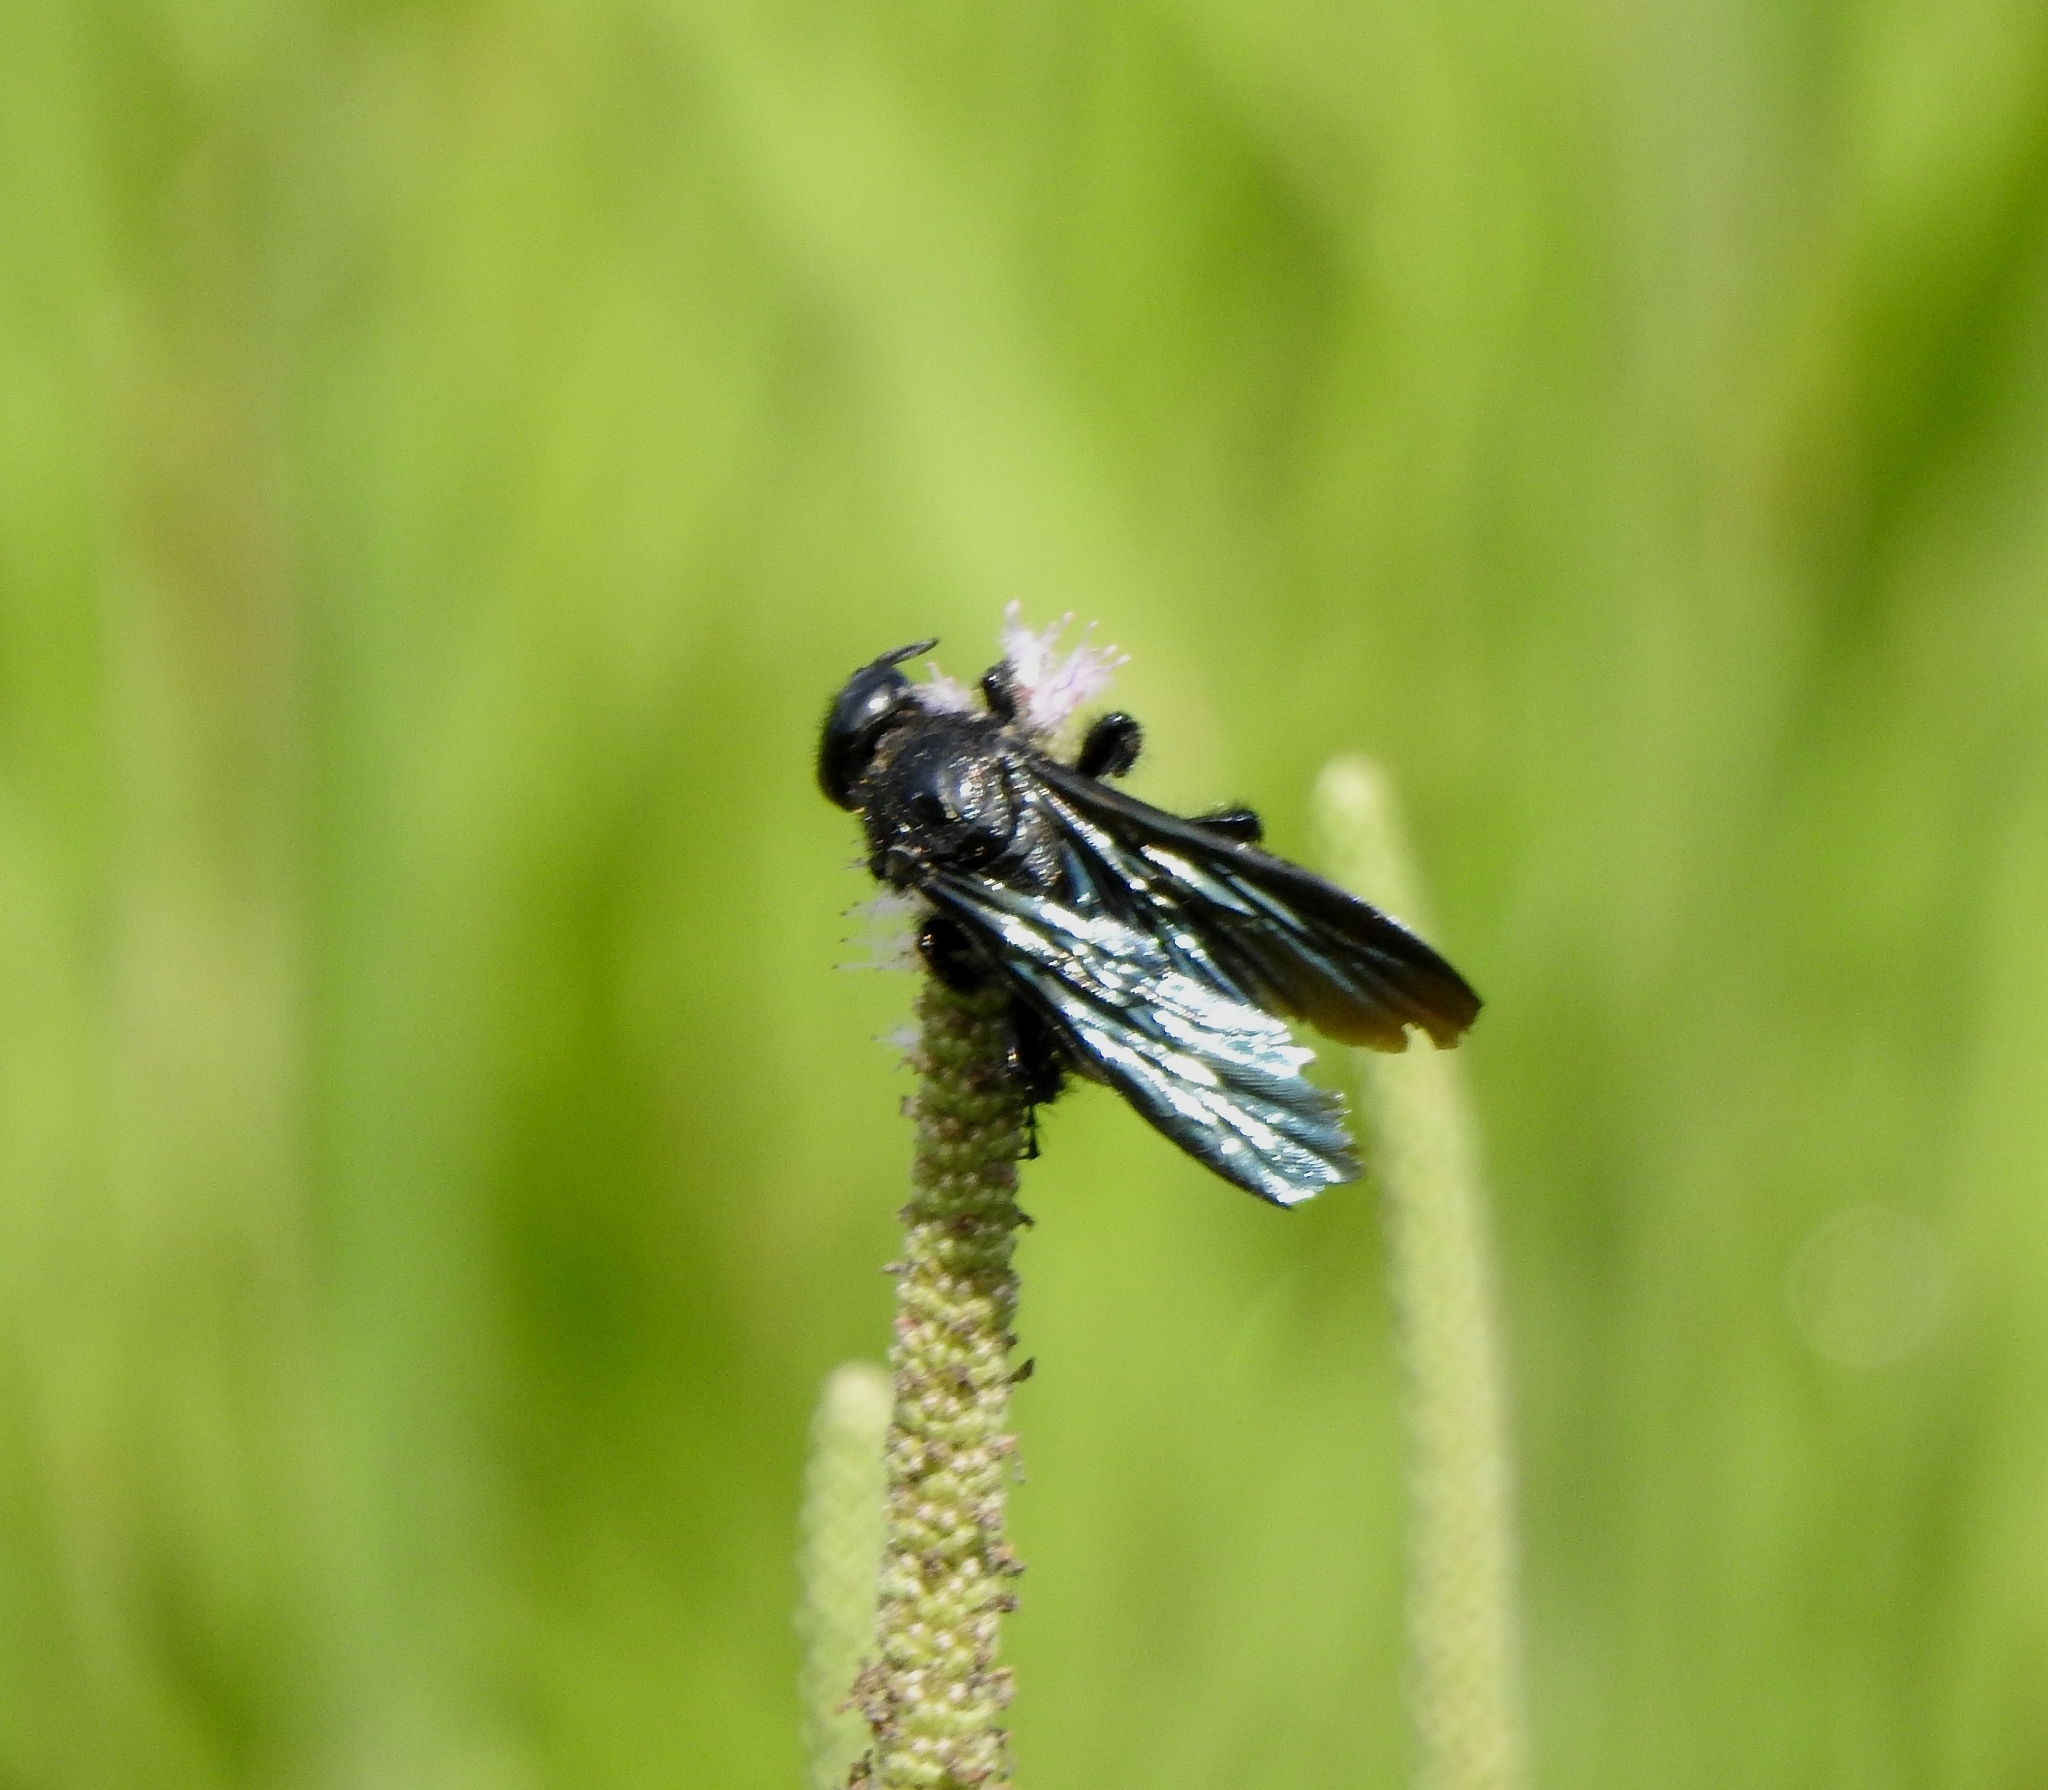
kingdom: Animalia
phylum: Arthropoda
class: Insecta
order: Hymenoptera
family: Scoliidae
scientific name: Scoliidae
